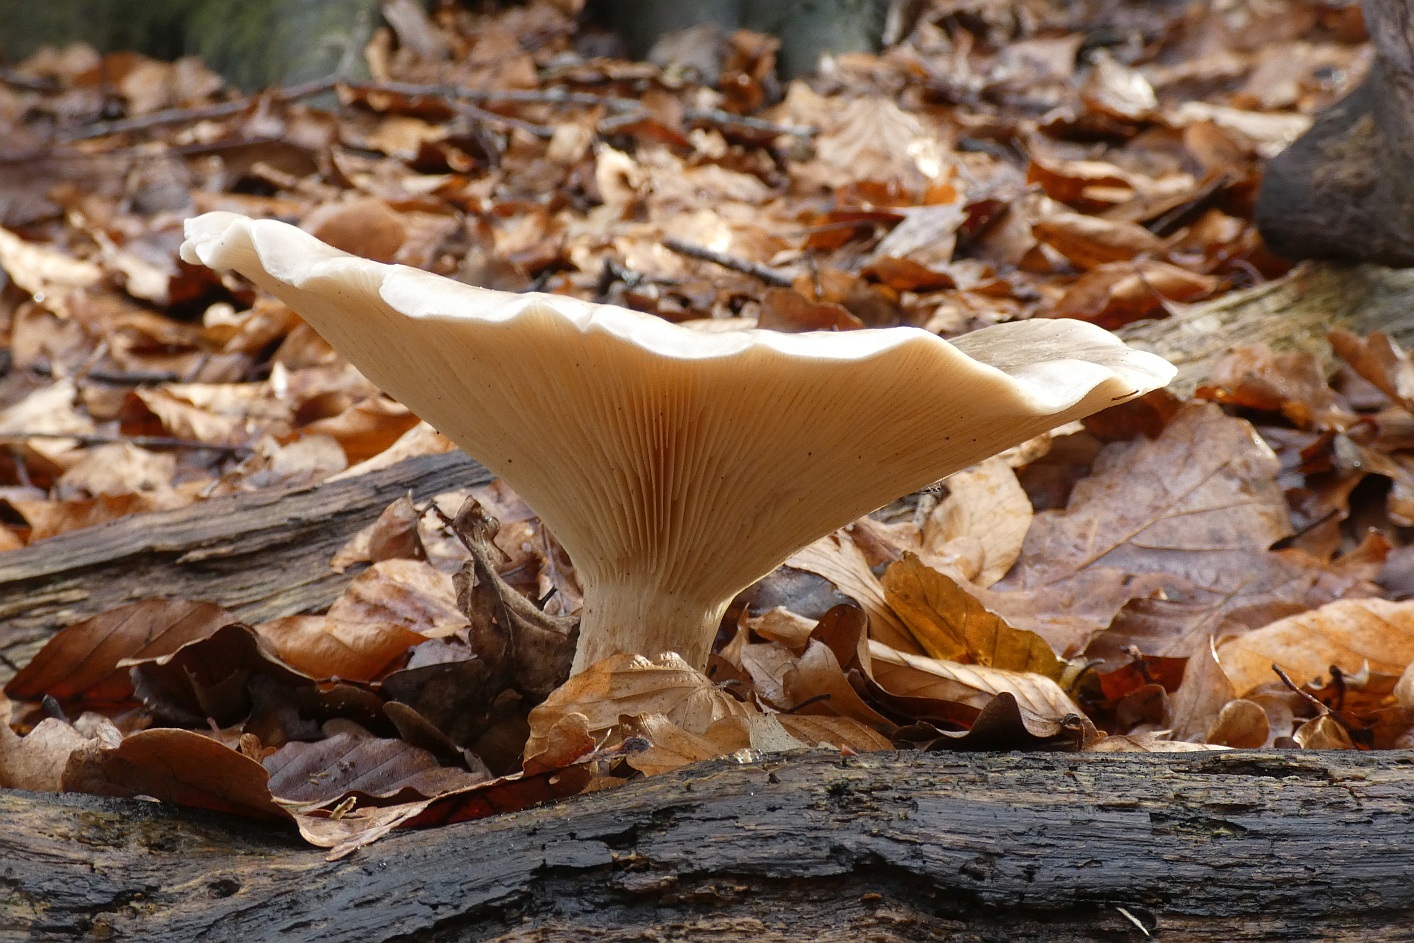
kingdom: Fungi
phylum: Basidiomycota
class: Agaricomycetes
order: Agaricales
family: Tricholomataceae
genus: Clitocybe
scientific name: Clitocybe nebularis
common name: Clouded agaric
